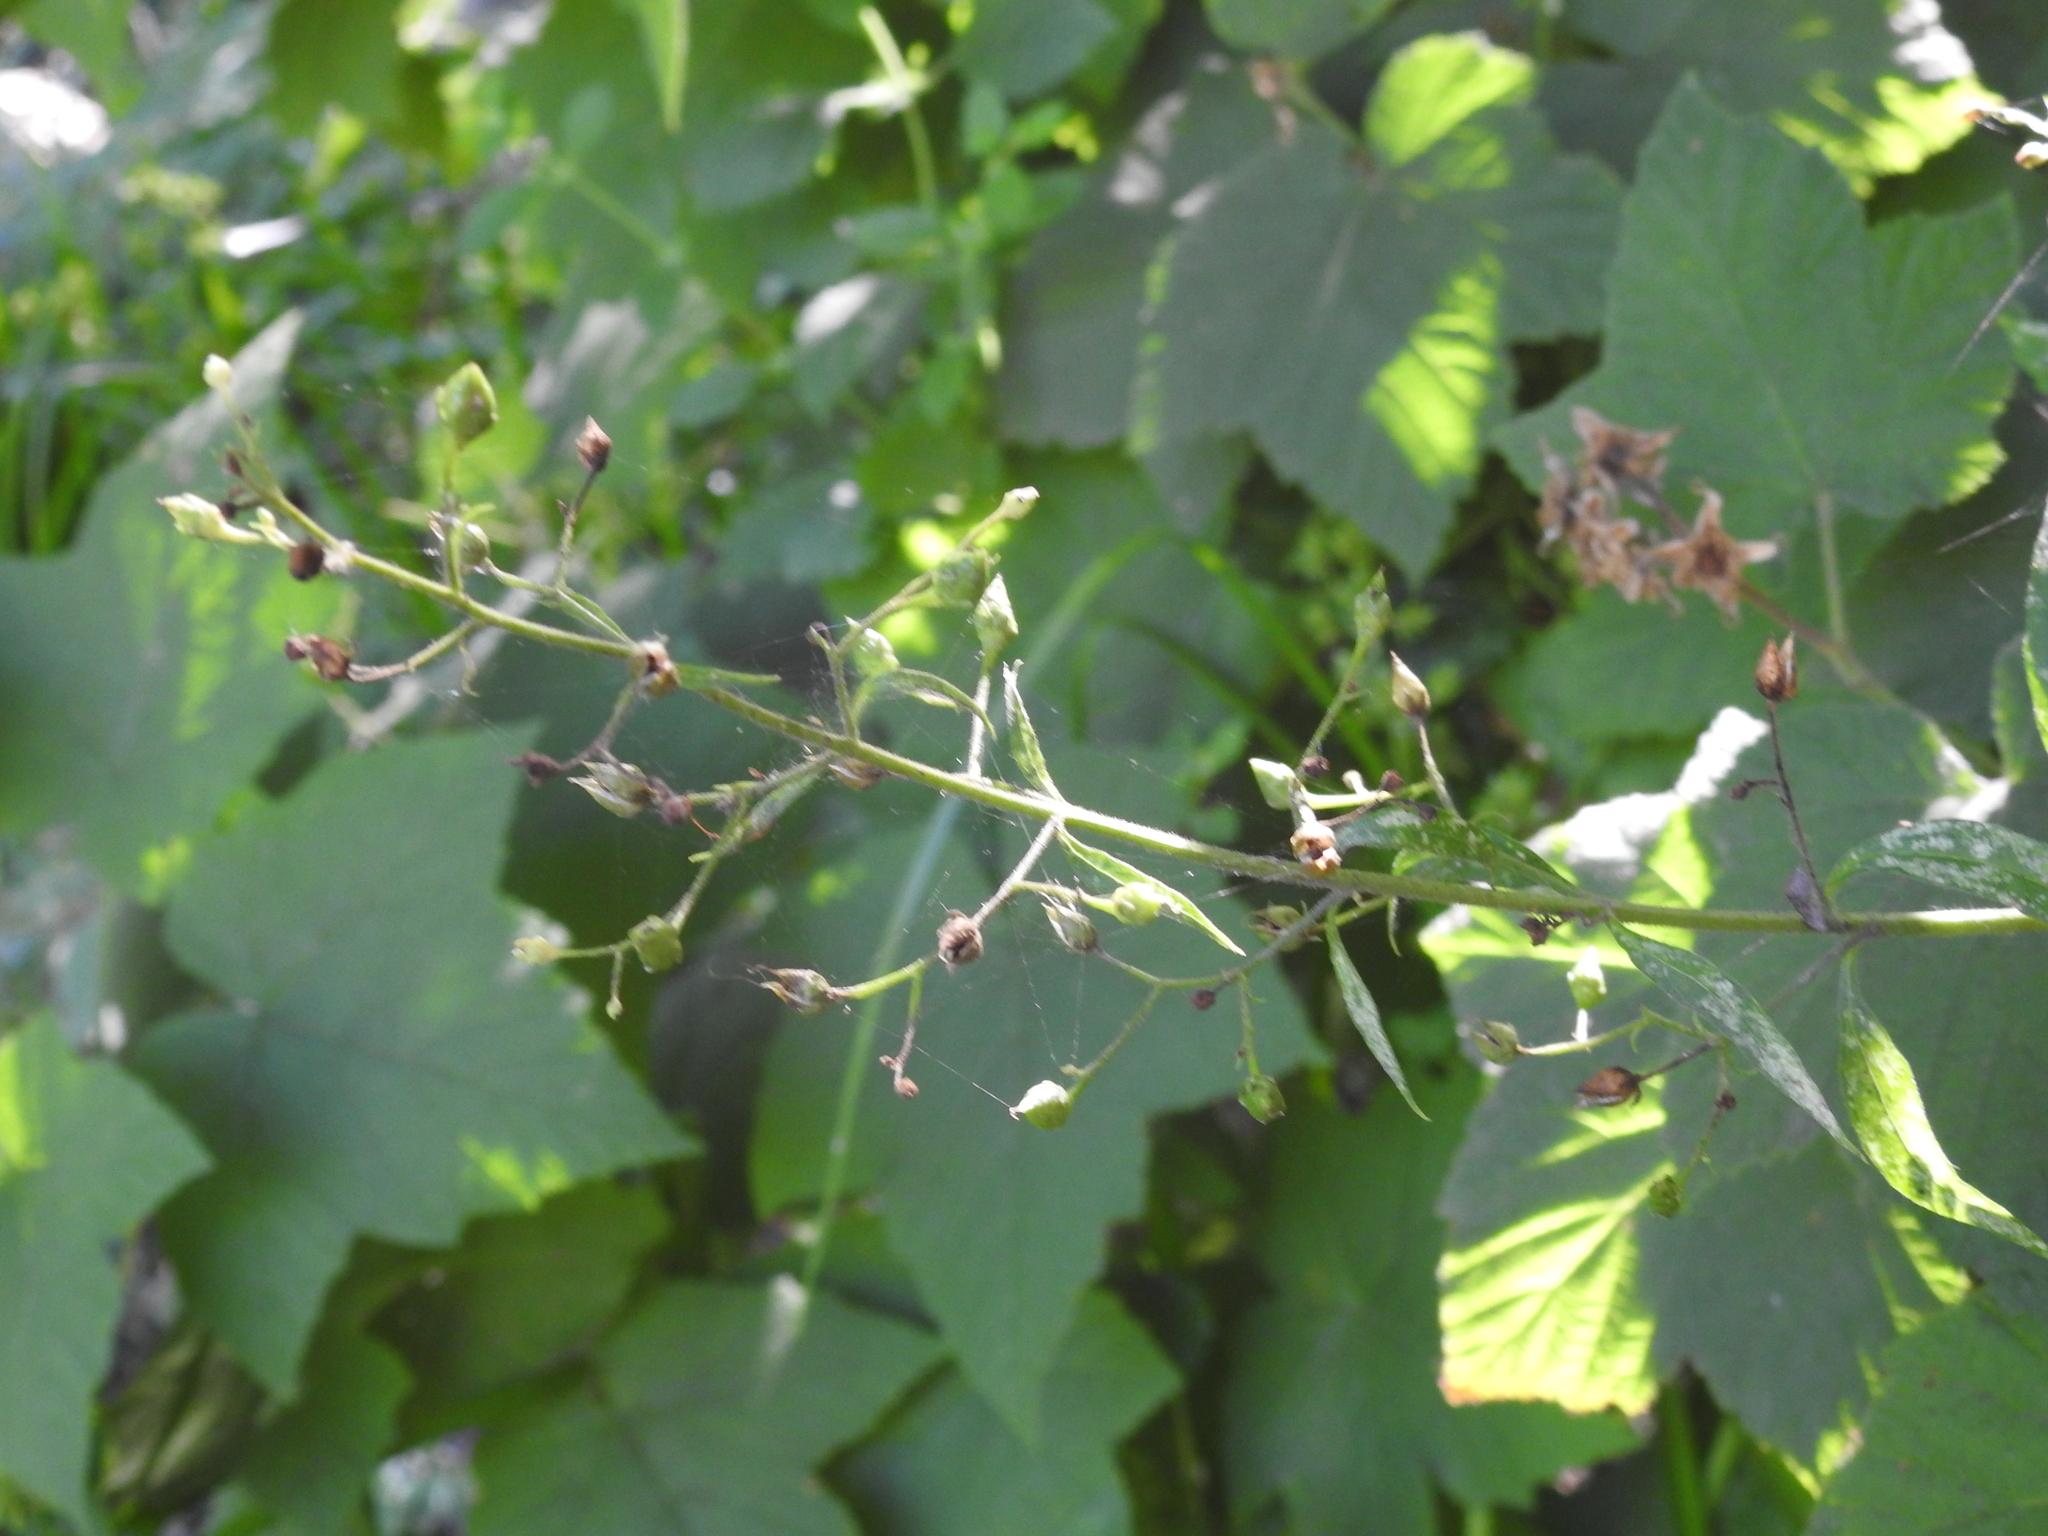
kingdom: Plantae
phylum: Tracheophyta
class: Magnoliopsida
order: Lamiales
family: Scrophulariaceae
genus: Scrophularia
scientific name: Scrophularia californica
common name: California figwort
